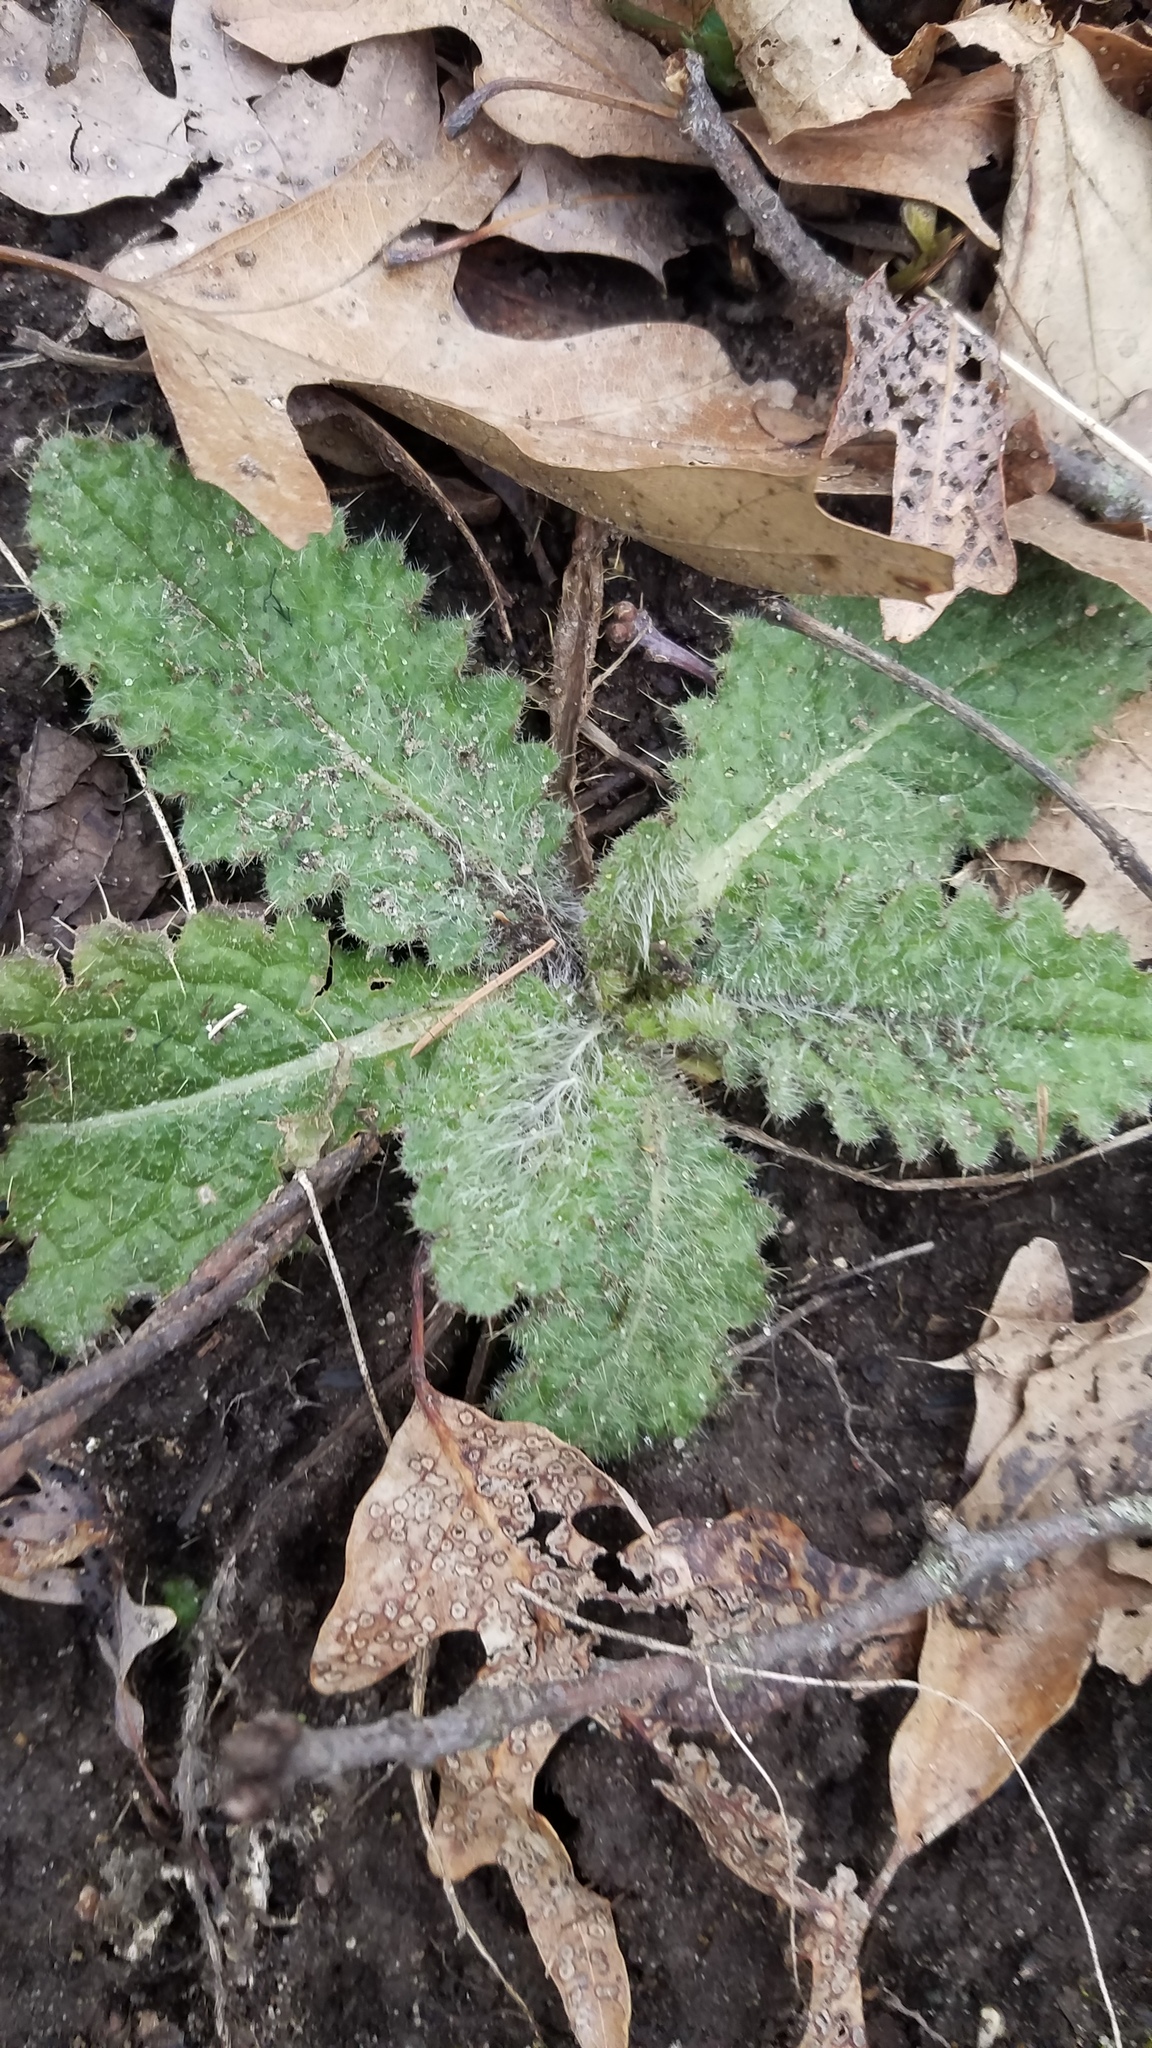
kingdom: Plantae
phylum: Tracheophyta
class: Magnoliopsida
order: Asterales
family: Asteraceae
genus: Cirsium
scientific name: Cirsium vulgare
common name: Bull thistle
